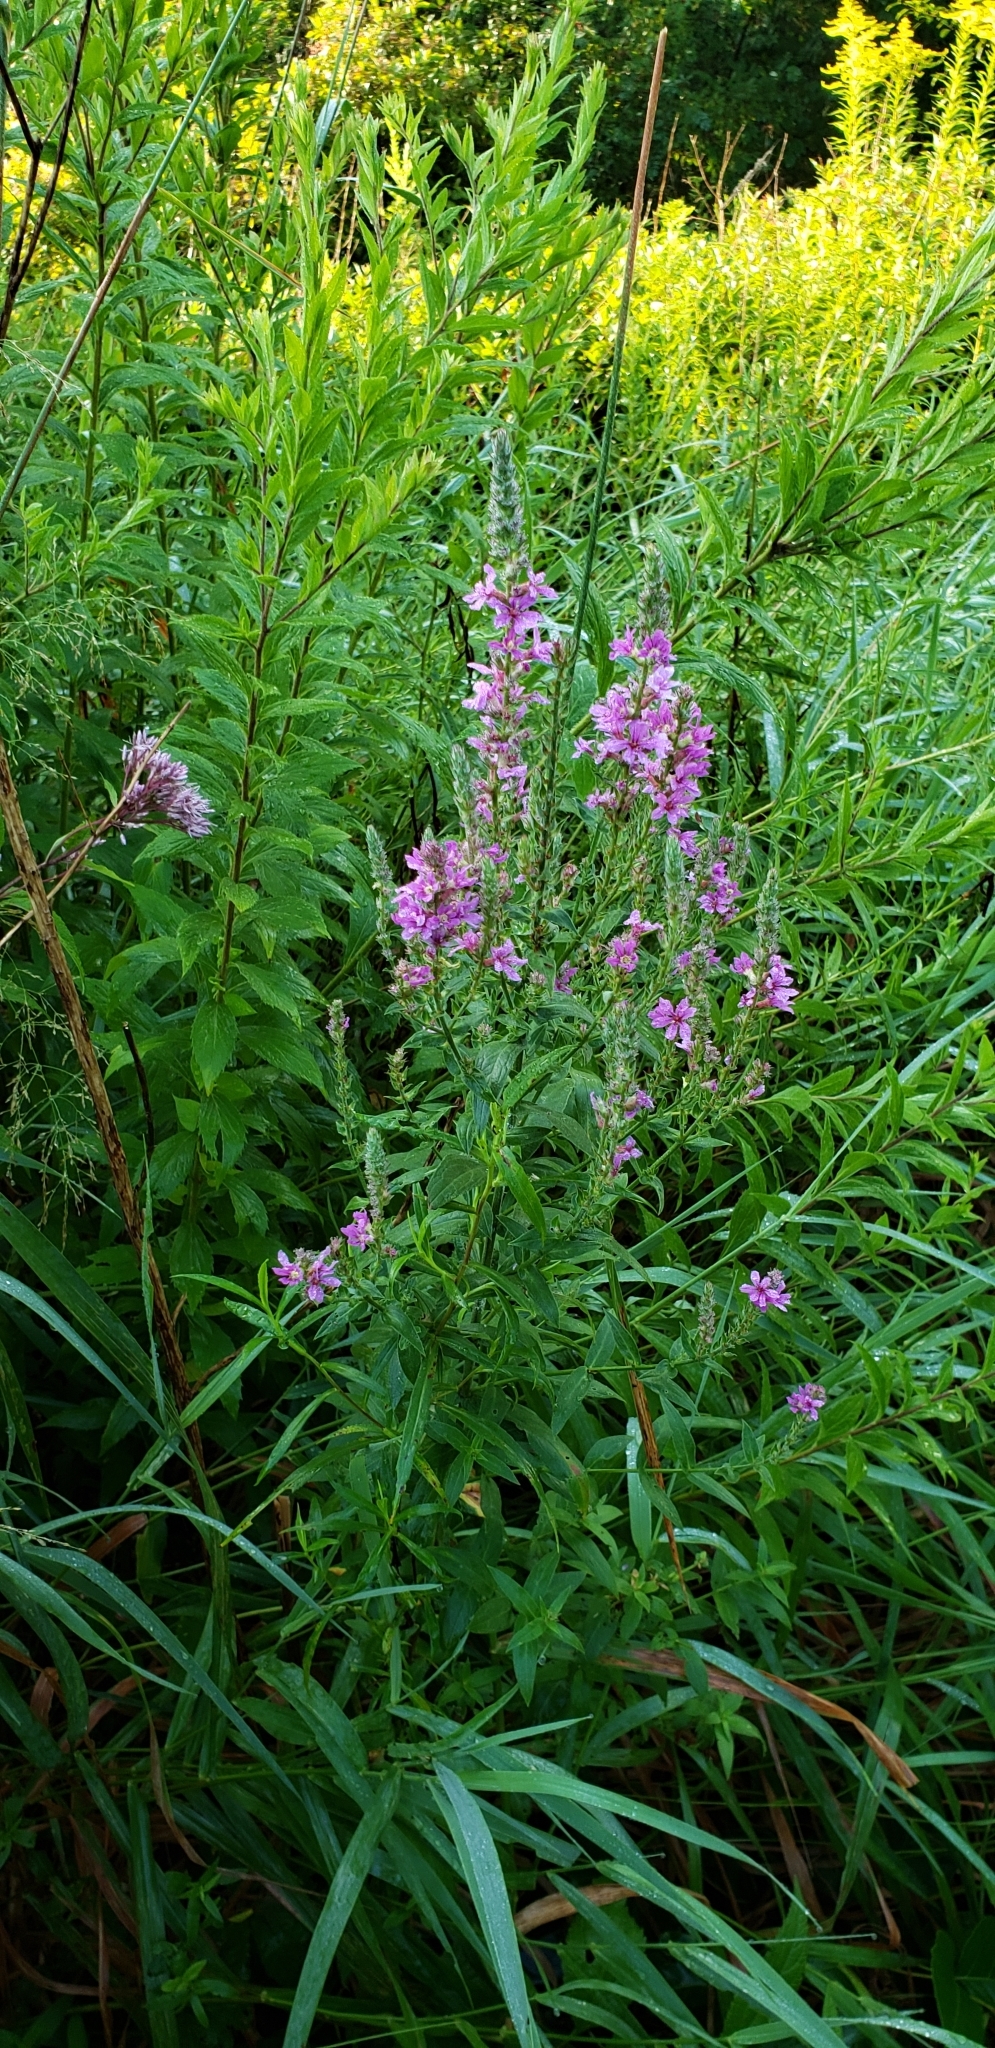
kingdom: Plantae
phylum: Tracheophyta
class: Magnoliopsida
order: Myrtales
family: Lythraceae
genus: Lythrum
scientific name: Lythrum salicaria
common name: Purple loosestrife
